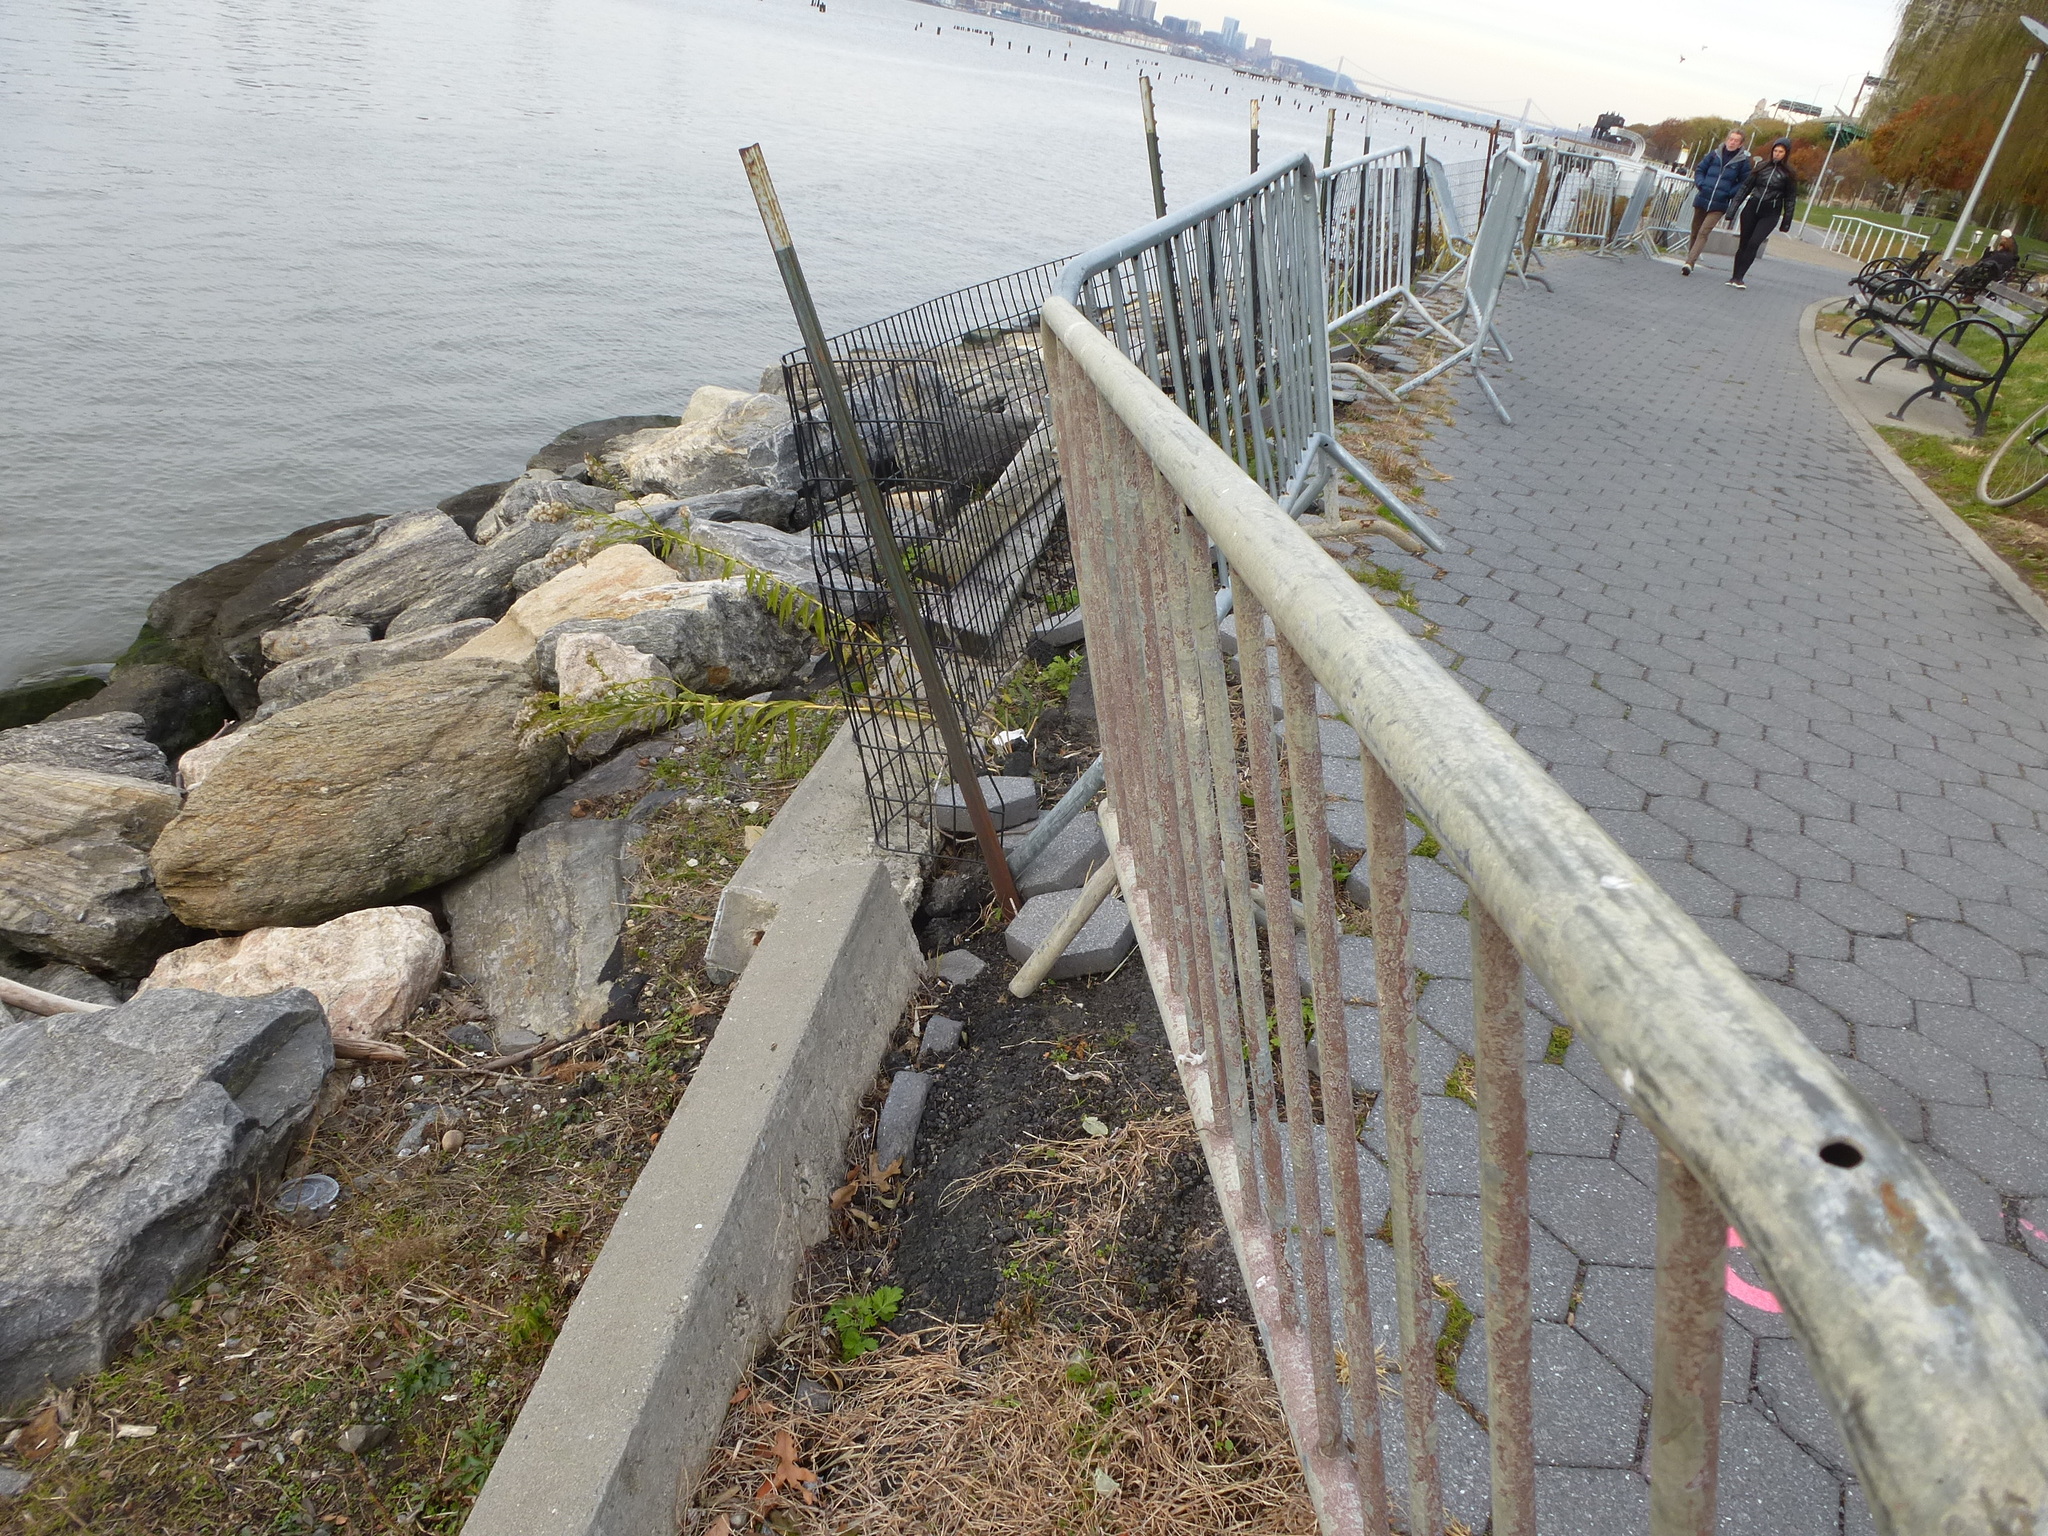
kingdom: Plantae
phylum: Tracheophyta
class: Magnoliopsida
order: Asterales
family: Asteraceae
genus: Solidago
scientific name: Solidago sempervirens
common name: Salt-marsh goldenrod
